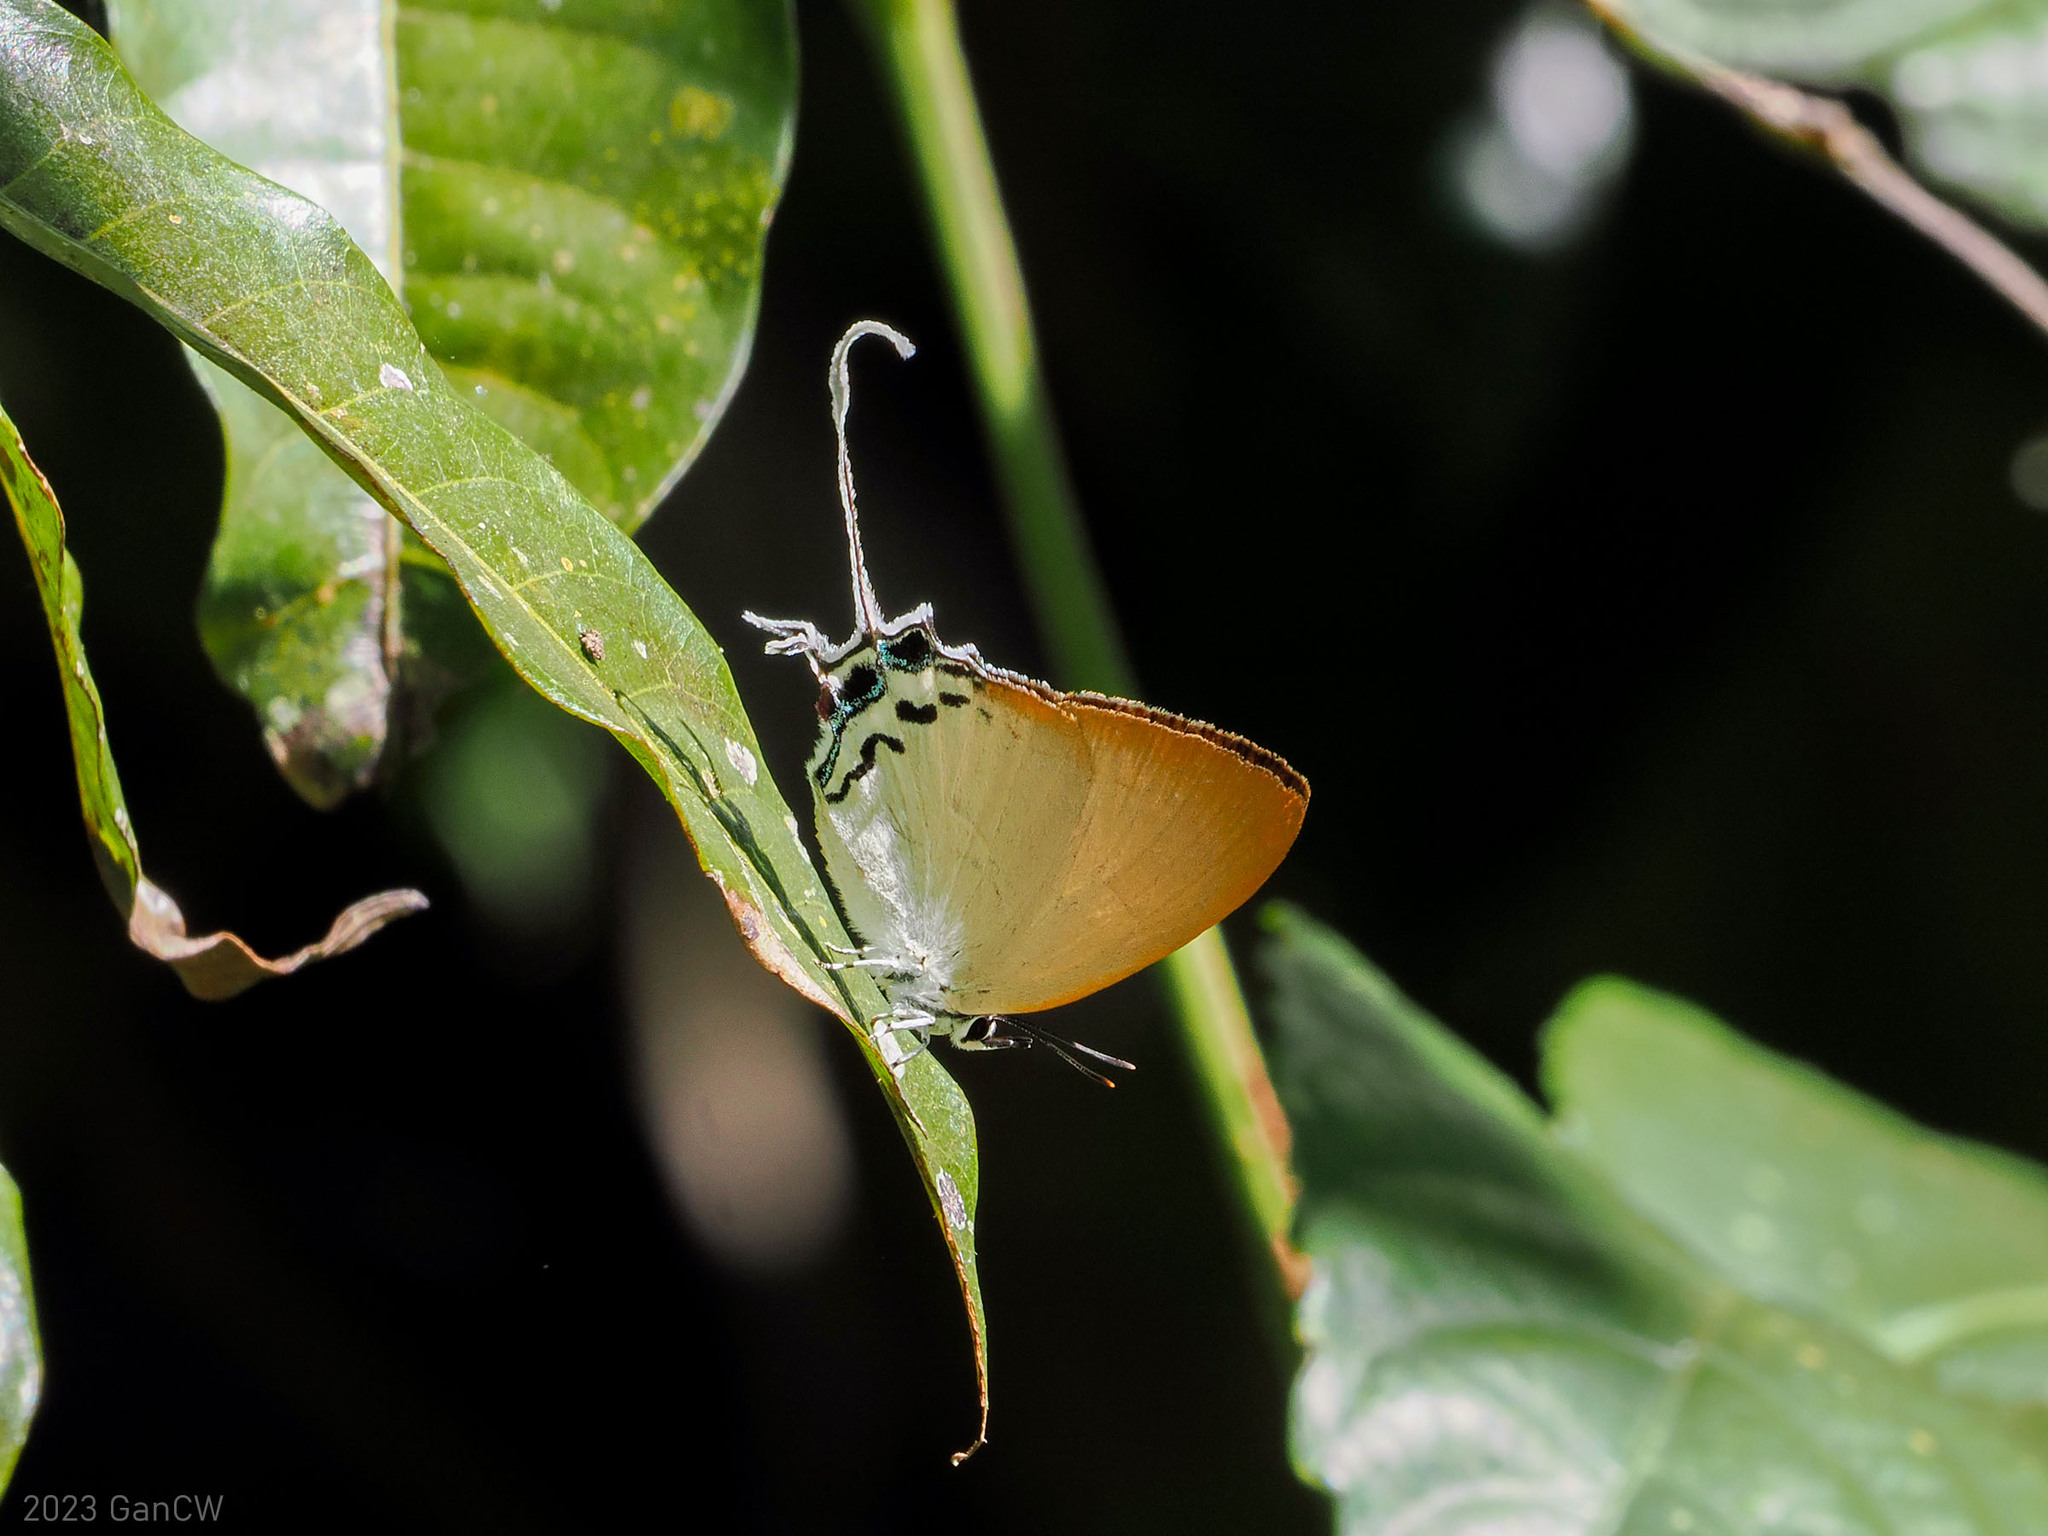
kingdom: Animalia
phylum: Arthropoda
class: Insecta
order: Lepidoptera
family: Lycaenidae
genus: Cheritra
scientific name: Cheritra orpheus
